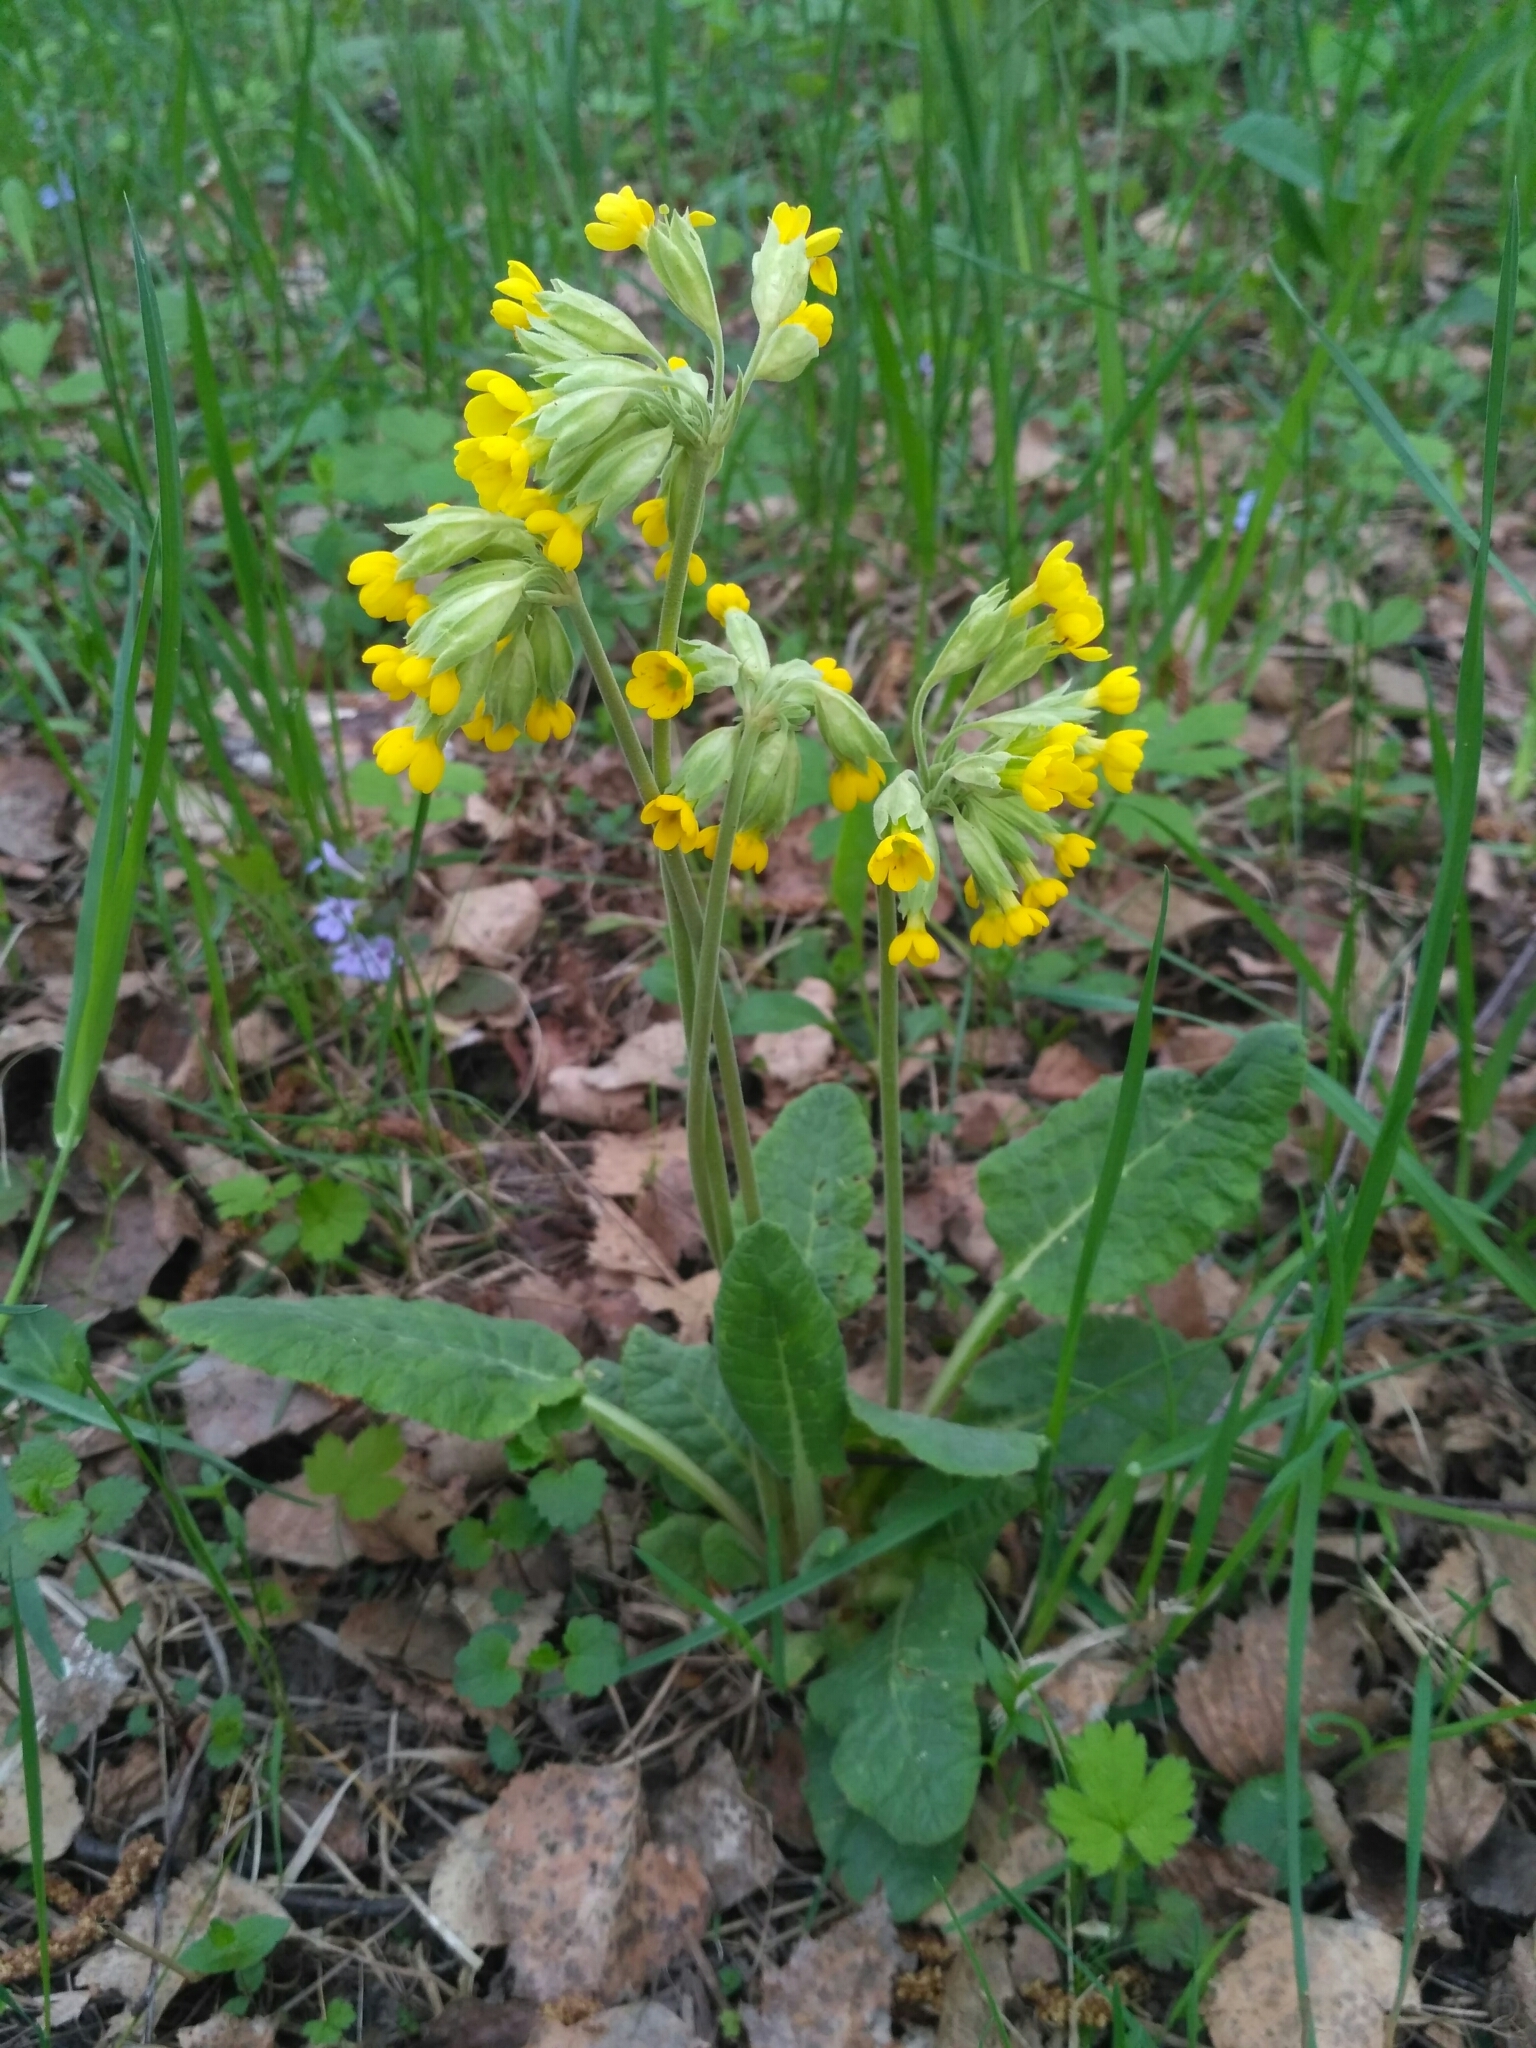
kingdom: Plantae
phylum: Tracheophyta
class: Magnoliopsida
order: Ericales
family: Primulaceae
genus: Primula
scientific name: Primula veris
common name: Cowslip
